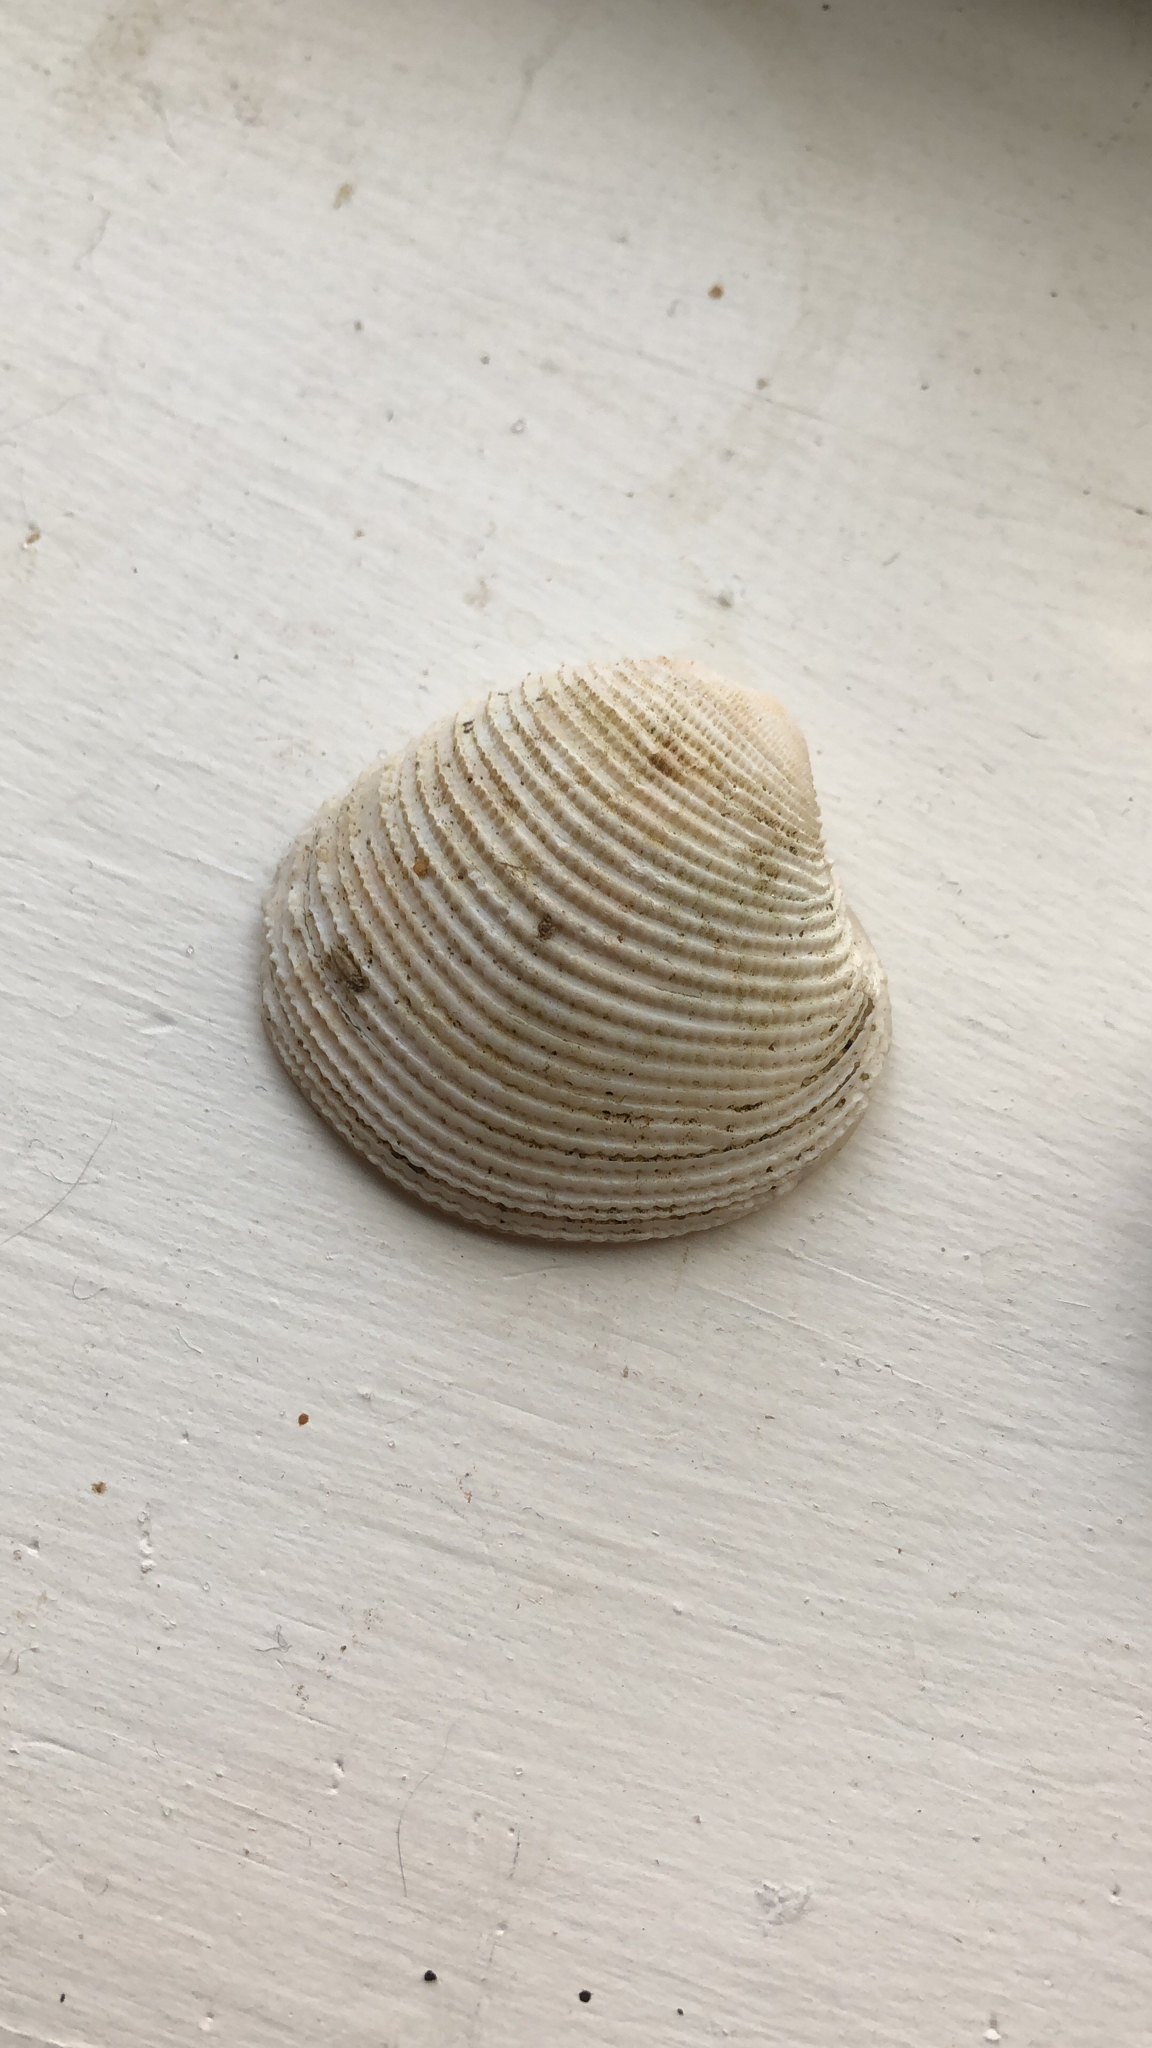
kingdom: Animalia
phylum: Mollusca
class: Bivalvia
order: Venerida
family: Veneridae
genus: Chionopsis
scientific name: Chionopsis intapurpurea
